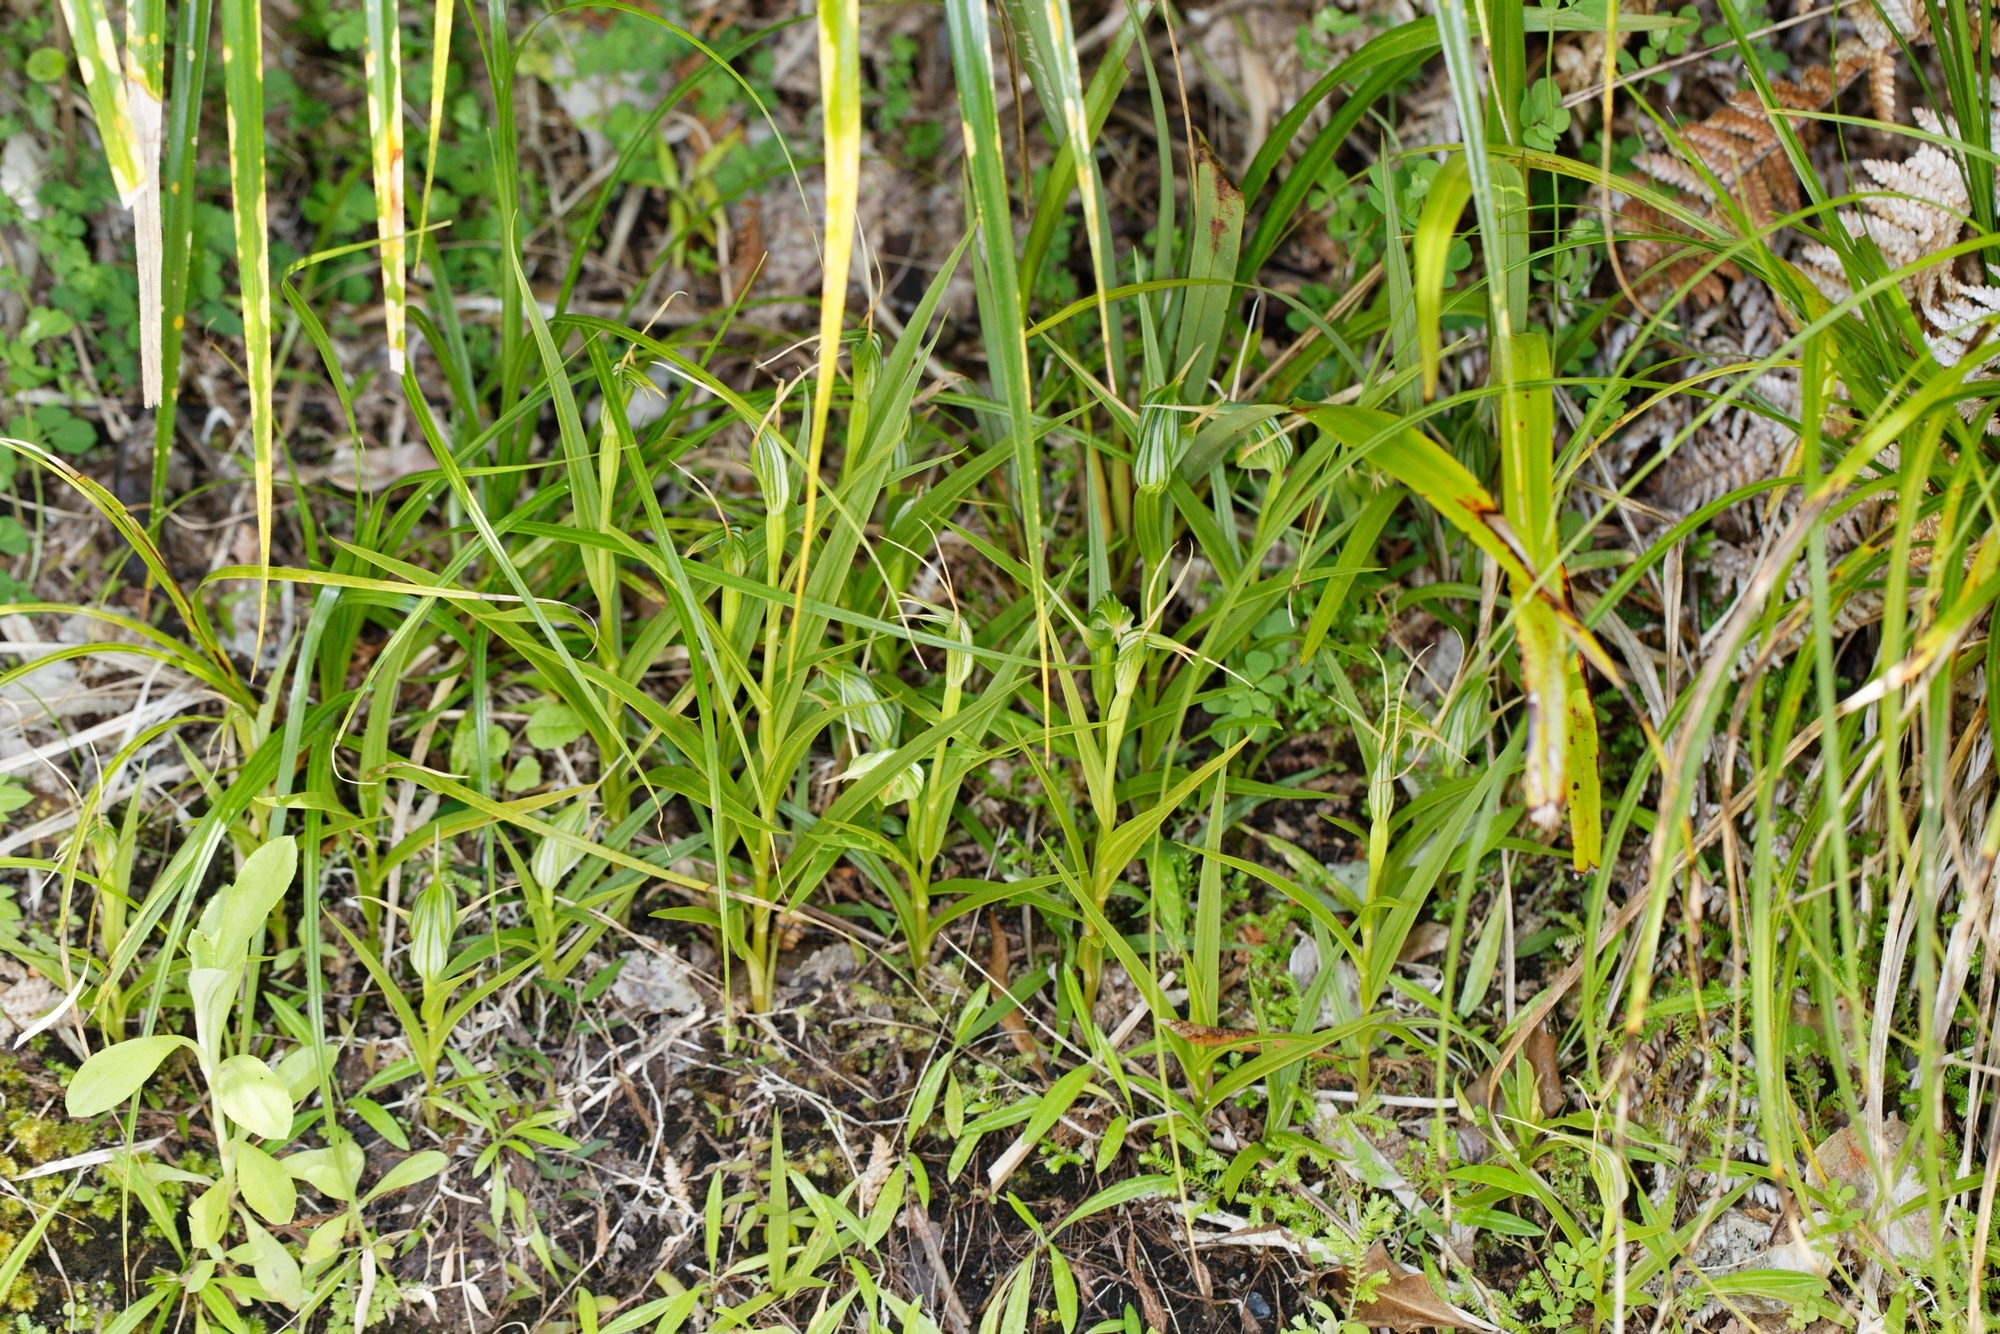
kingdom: Plantae
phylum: Tracheophyta
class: Liliopsida
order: Asparagales
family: Orchidaceae
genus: Pterostylis
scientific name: Pterostylis banksii
